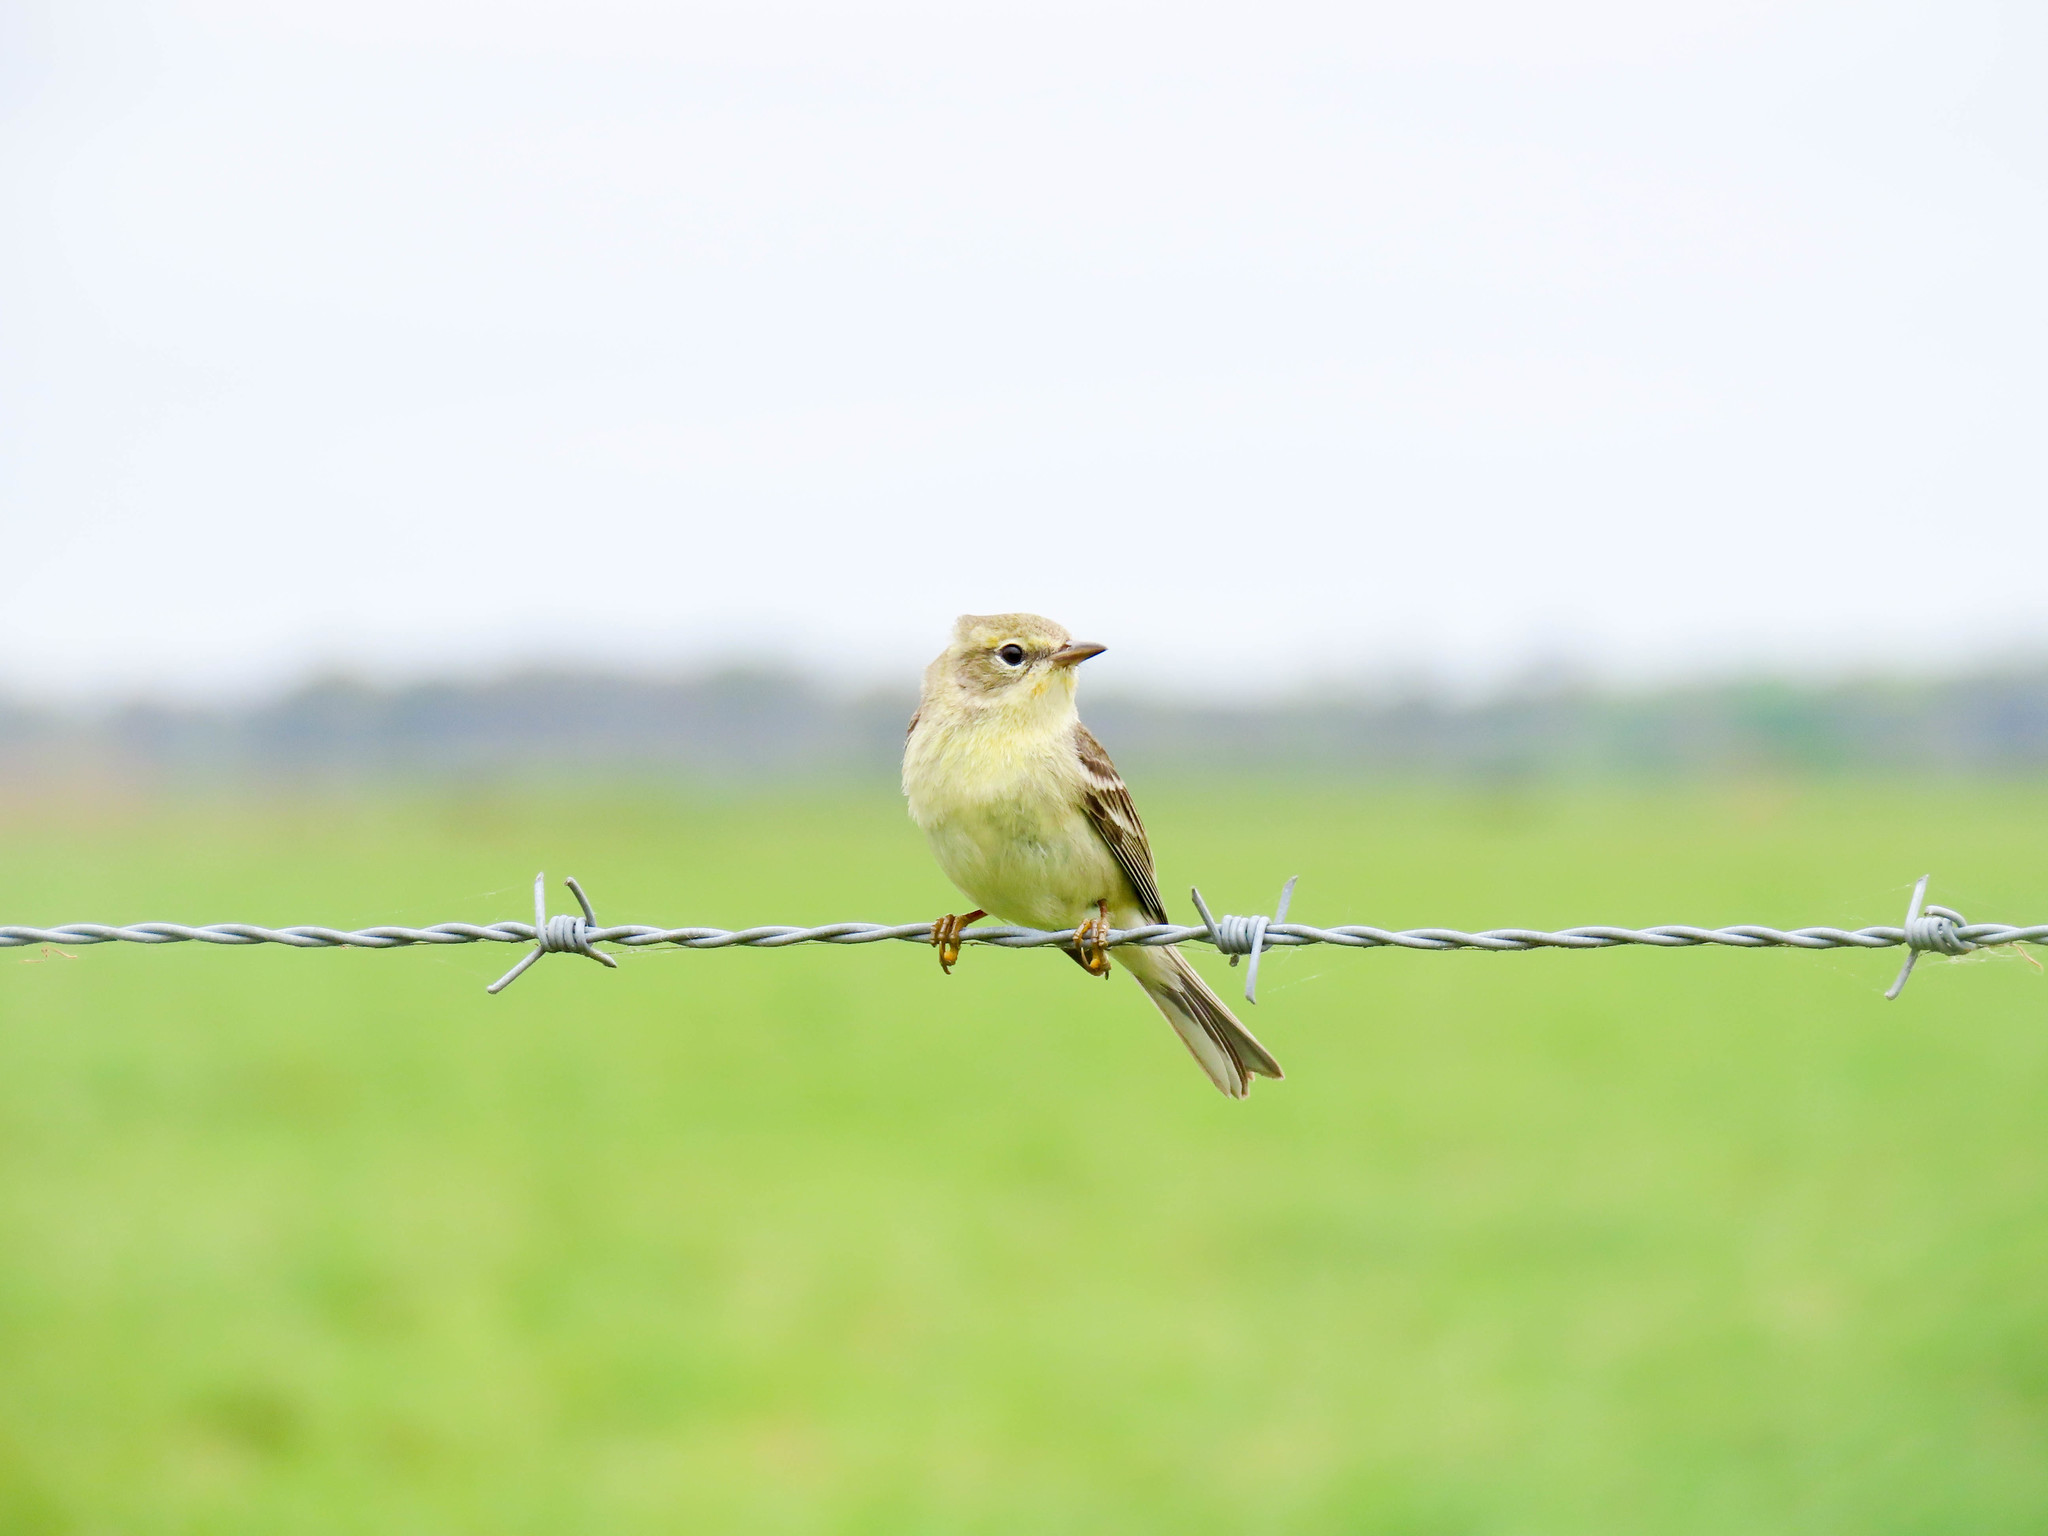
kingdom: Animalia
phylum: Chordata
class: Aves
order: Passeriformes
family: Parulidae
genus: Setophaga
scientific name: Setophaga pinus
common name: Pine warbler
